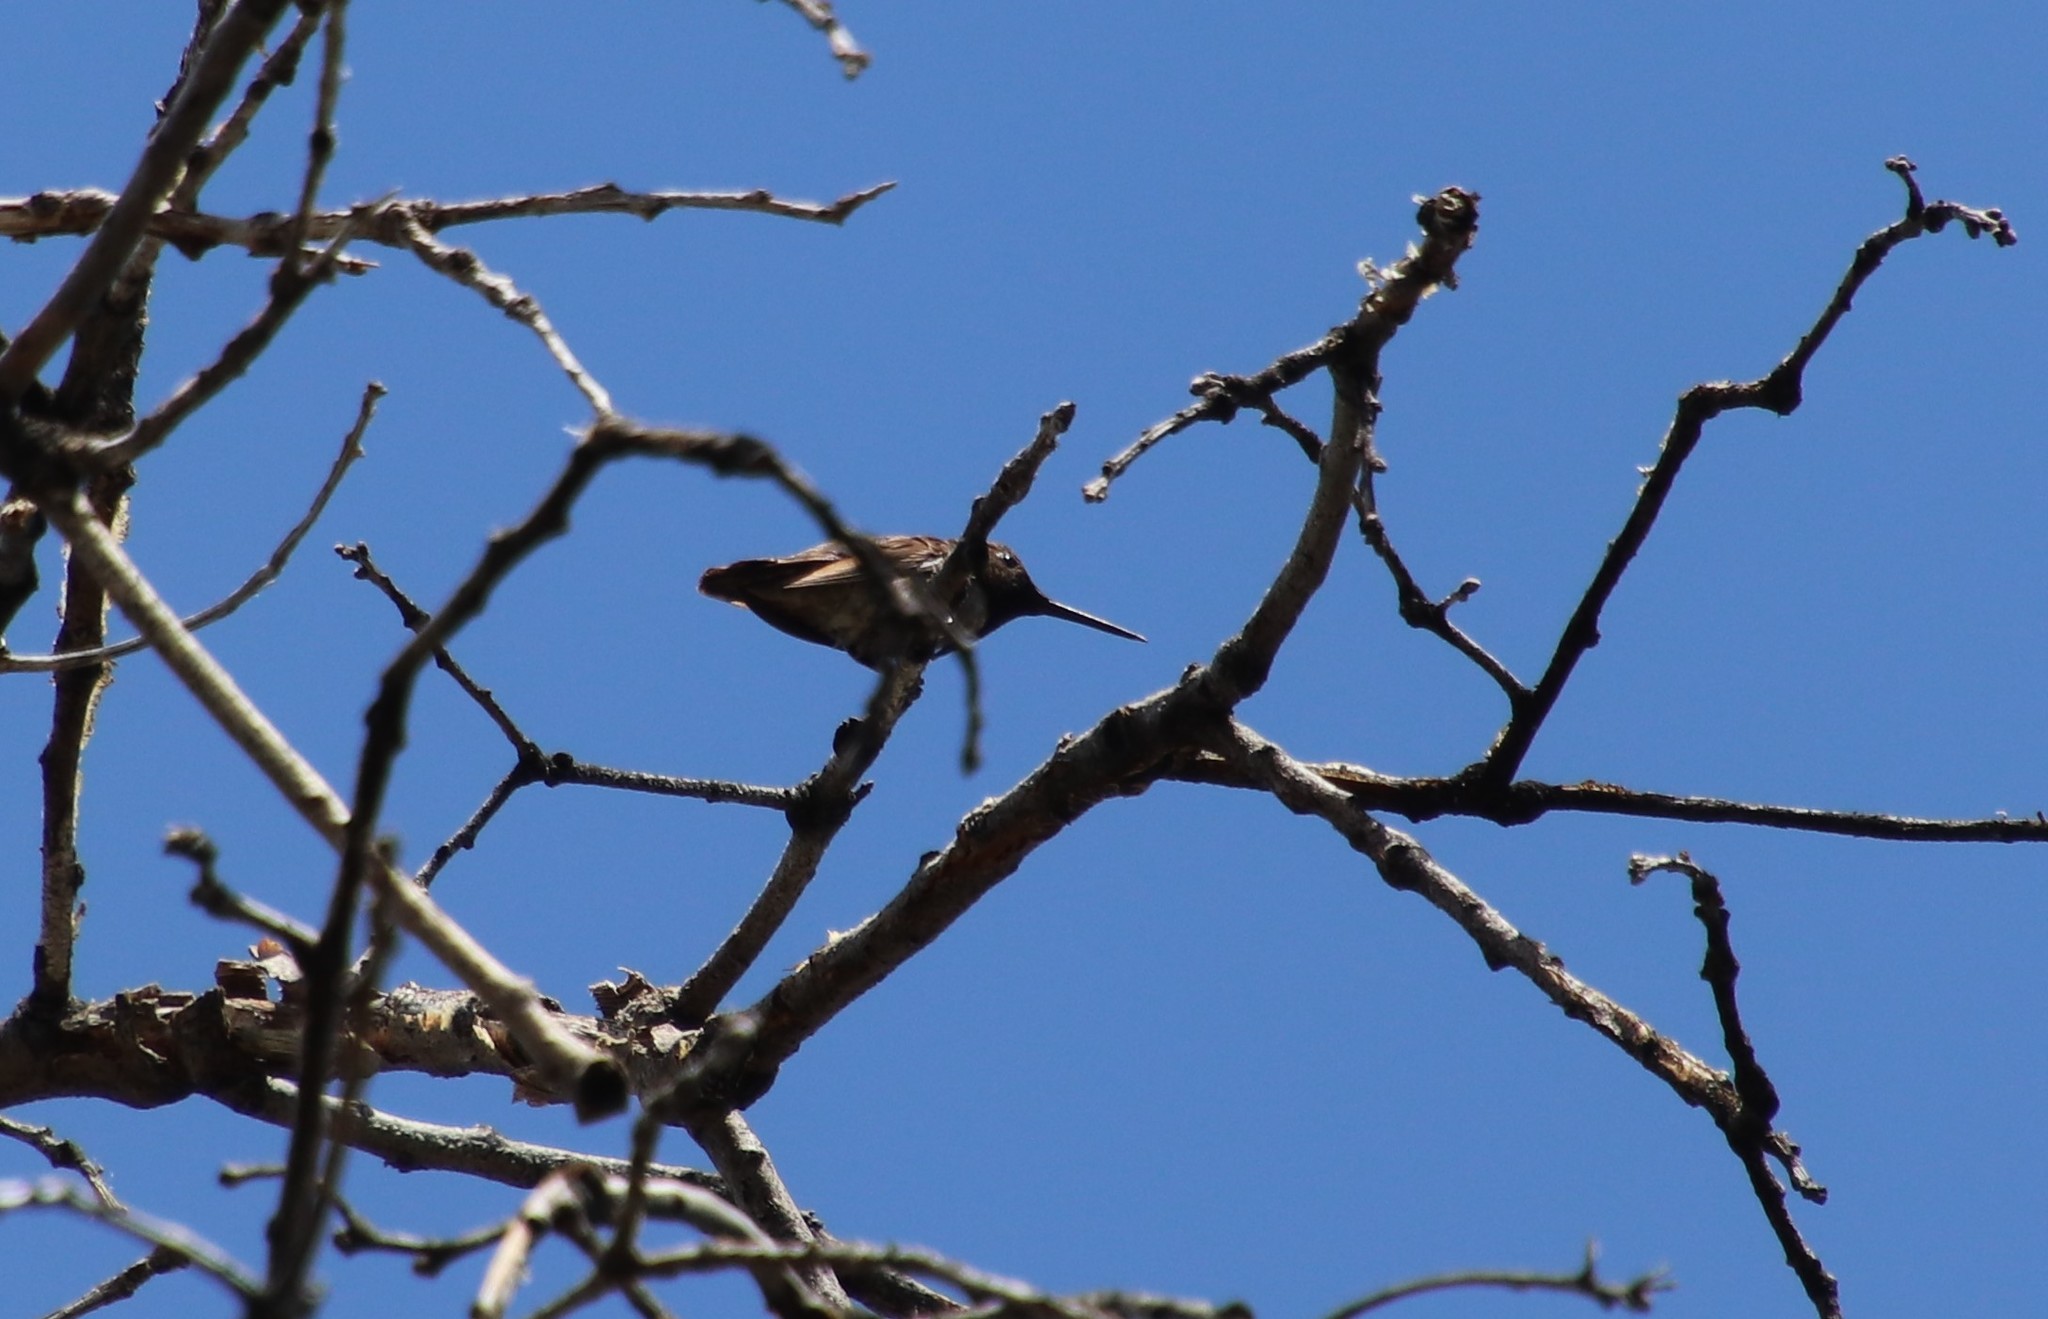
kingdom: Animalia
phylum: Chordata
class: Aves
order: Apodiformes
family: Trochilidae
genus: Calypte
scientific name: Calypte anna
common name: Anna's hummingbird
